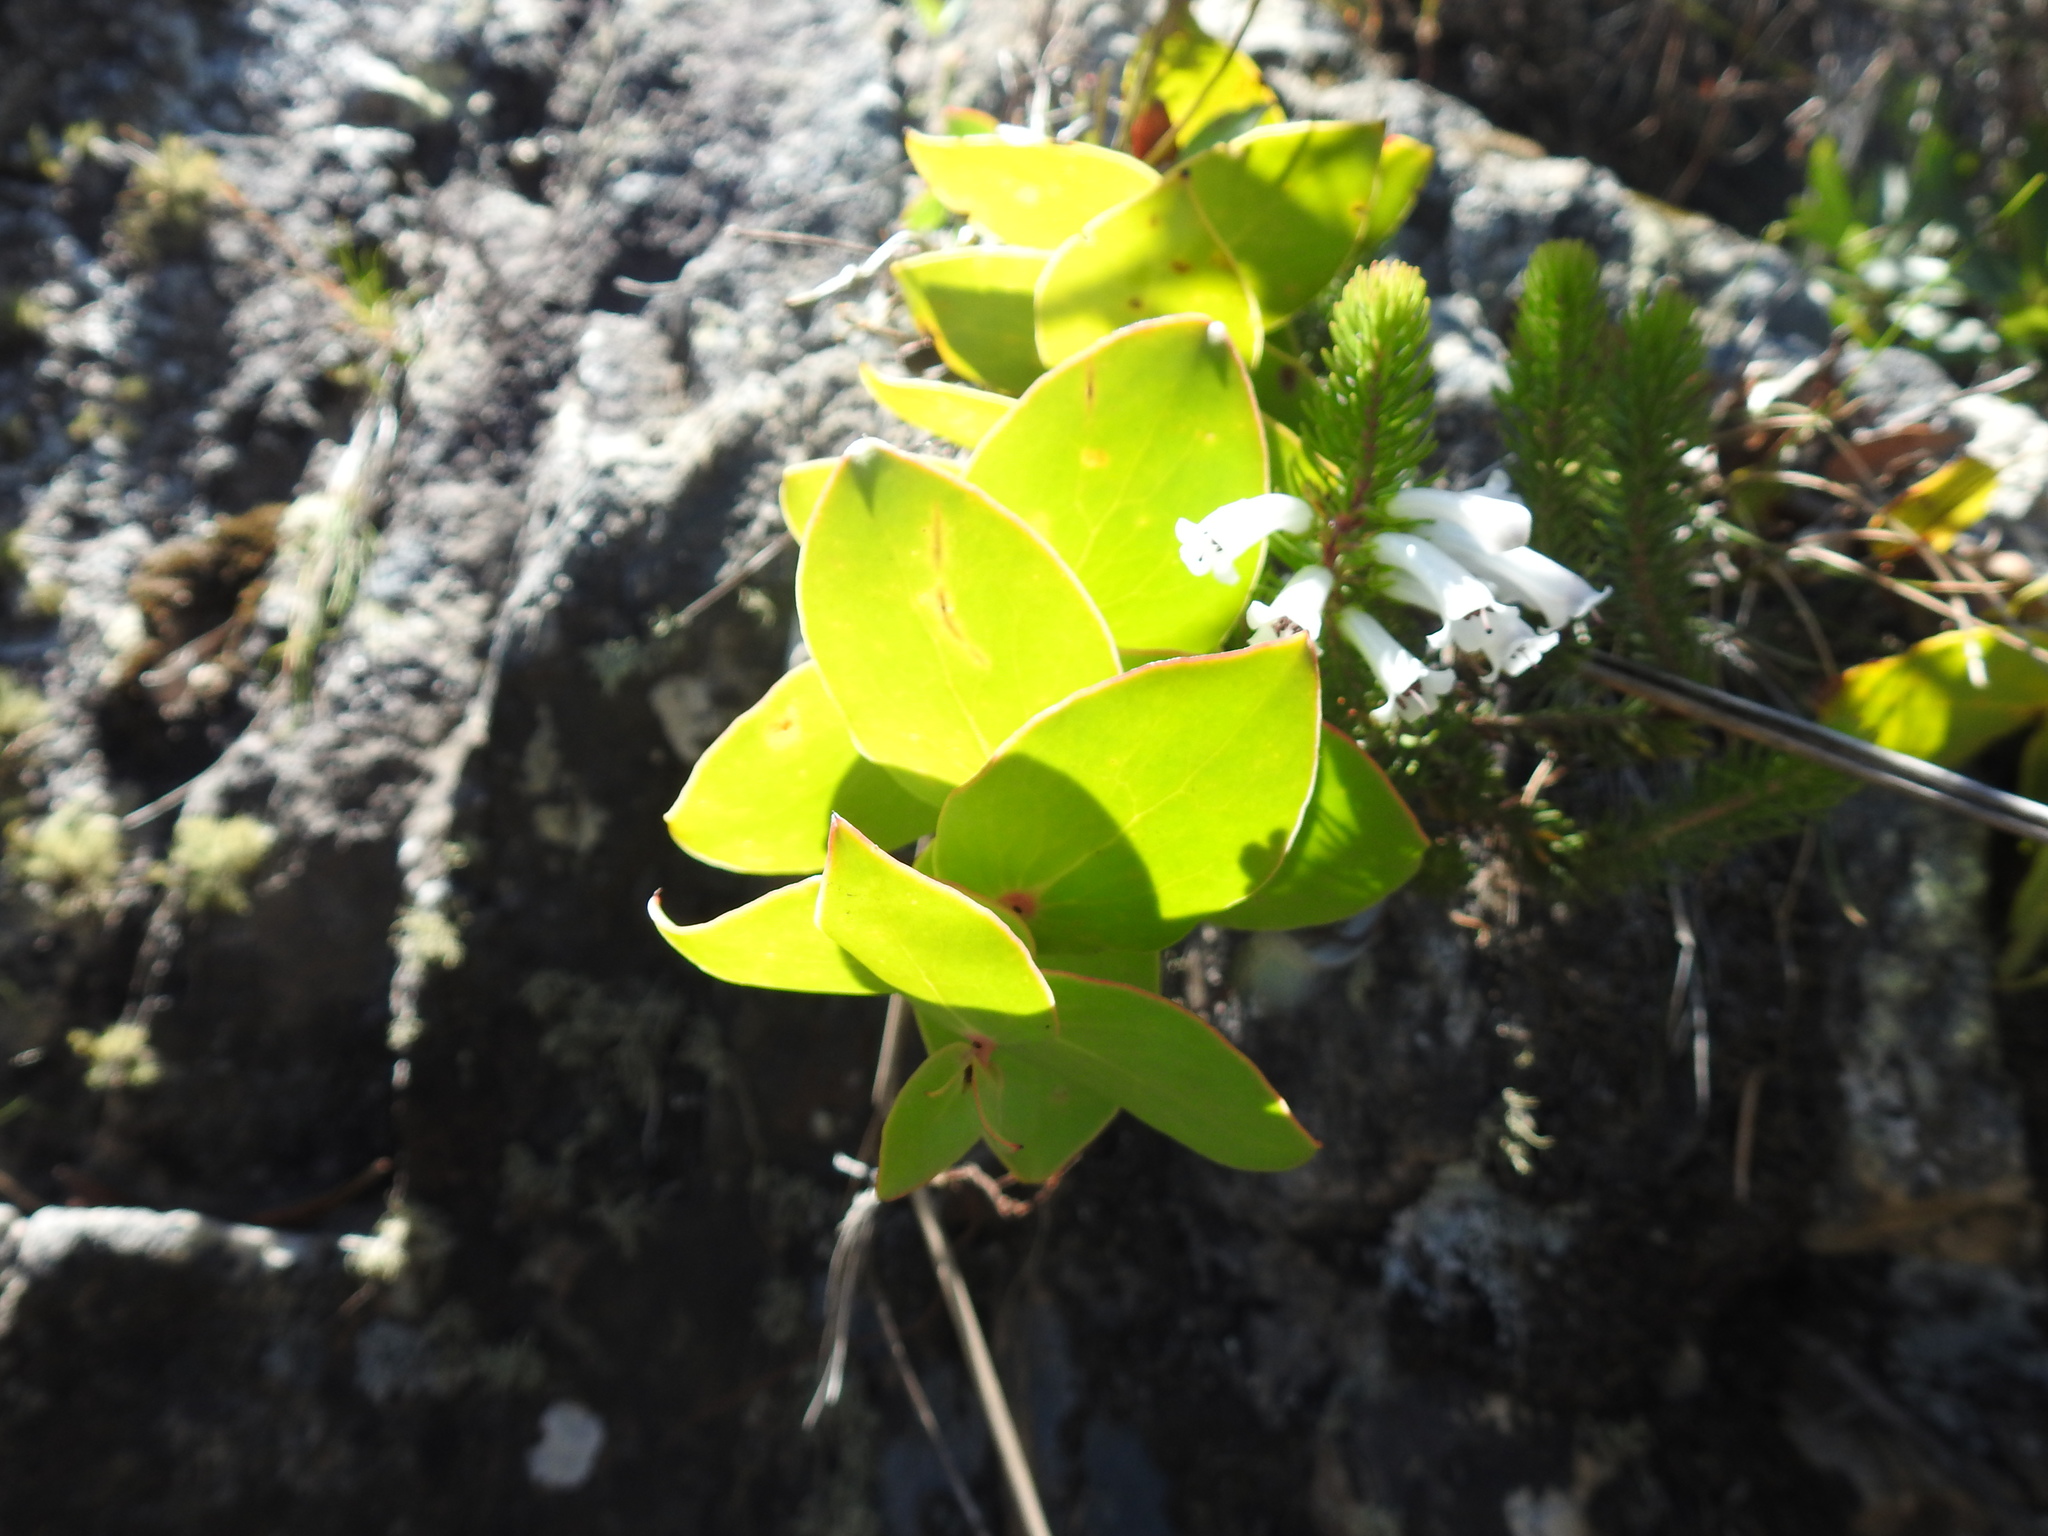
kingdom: Plantae
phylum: Tracheophyta
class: Magnoliopsida
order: Proteales
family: Proteaceae
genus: Protea
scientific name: Protea amplexicaulis
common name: Clasping-leaf sugarbush
